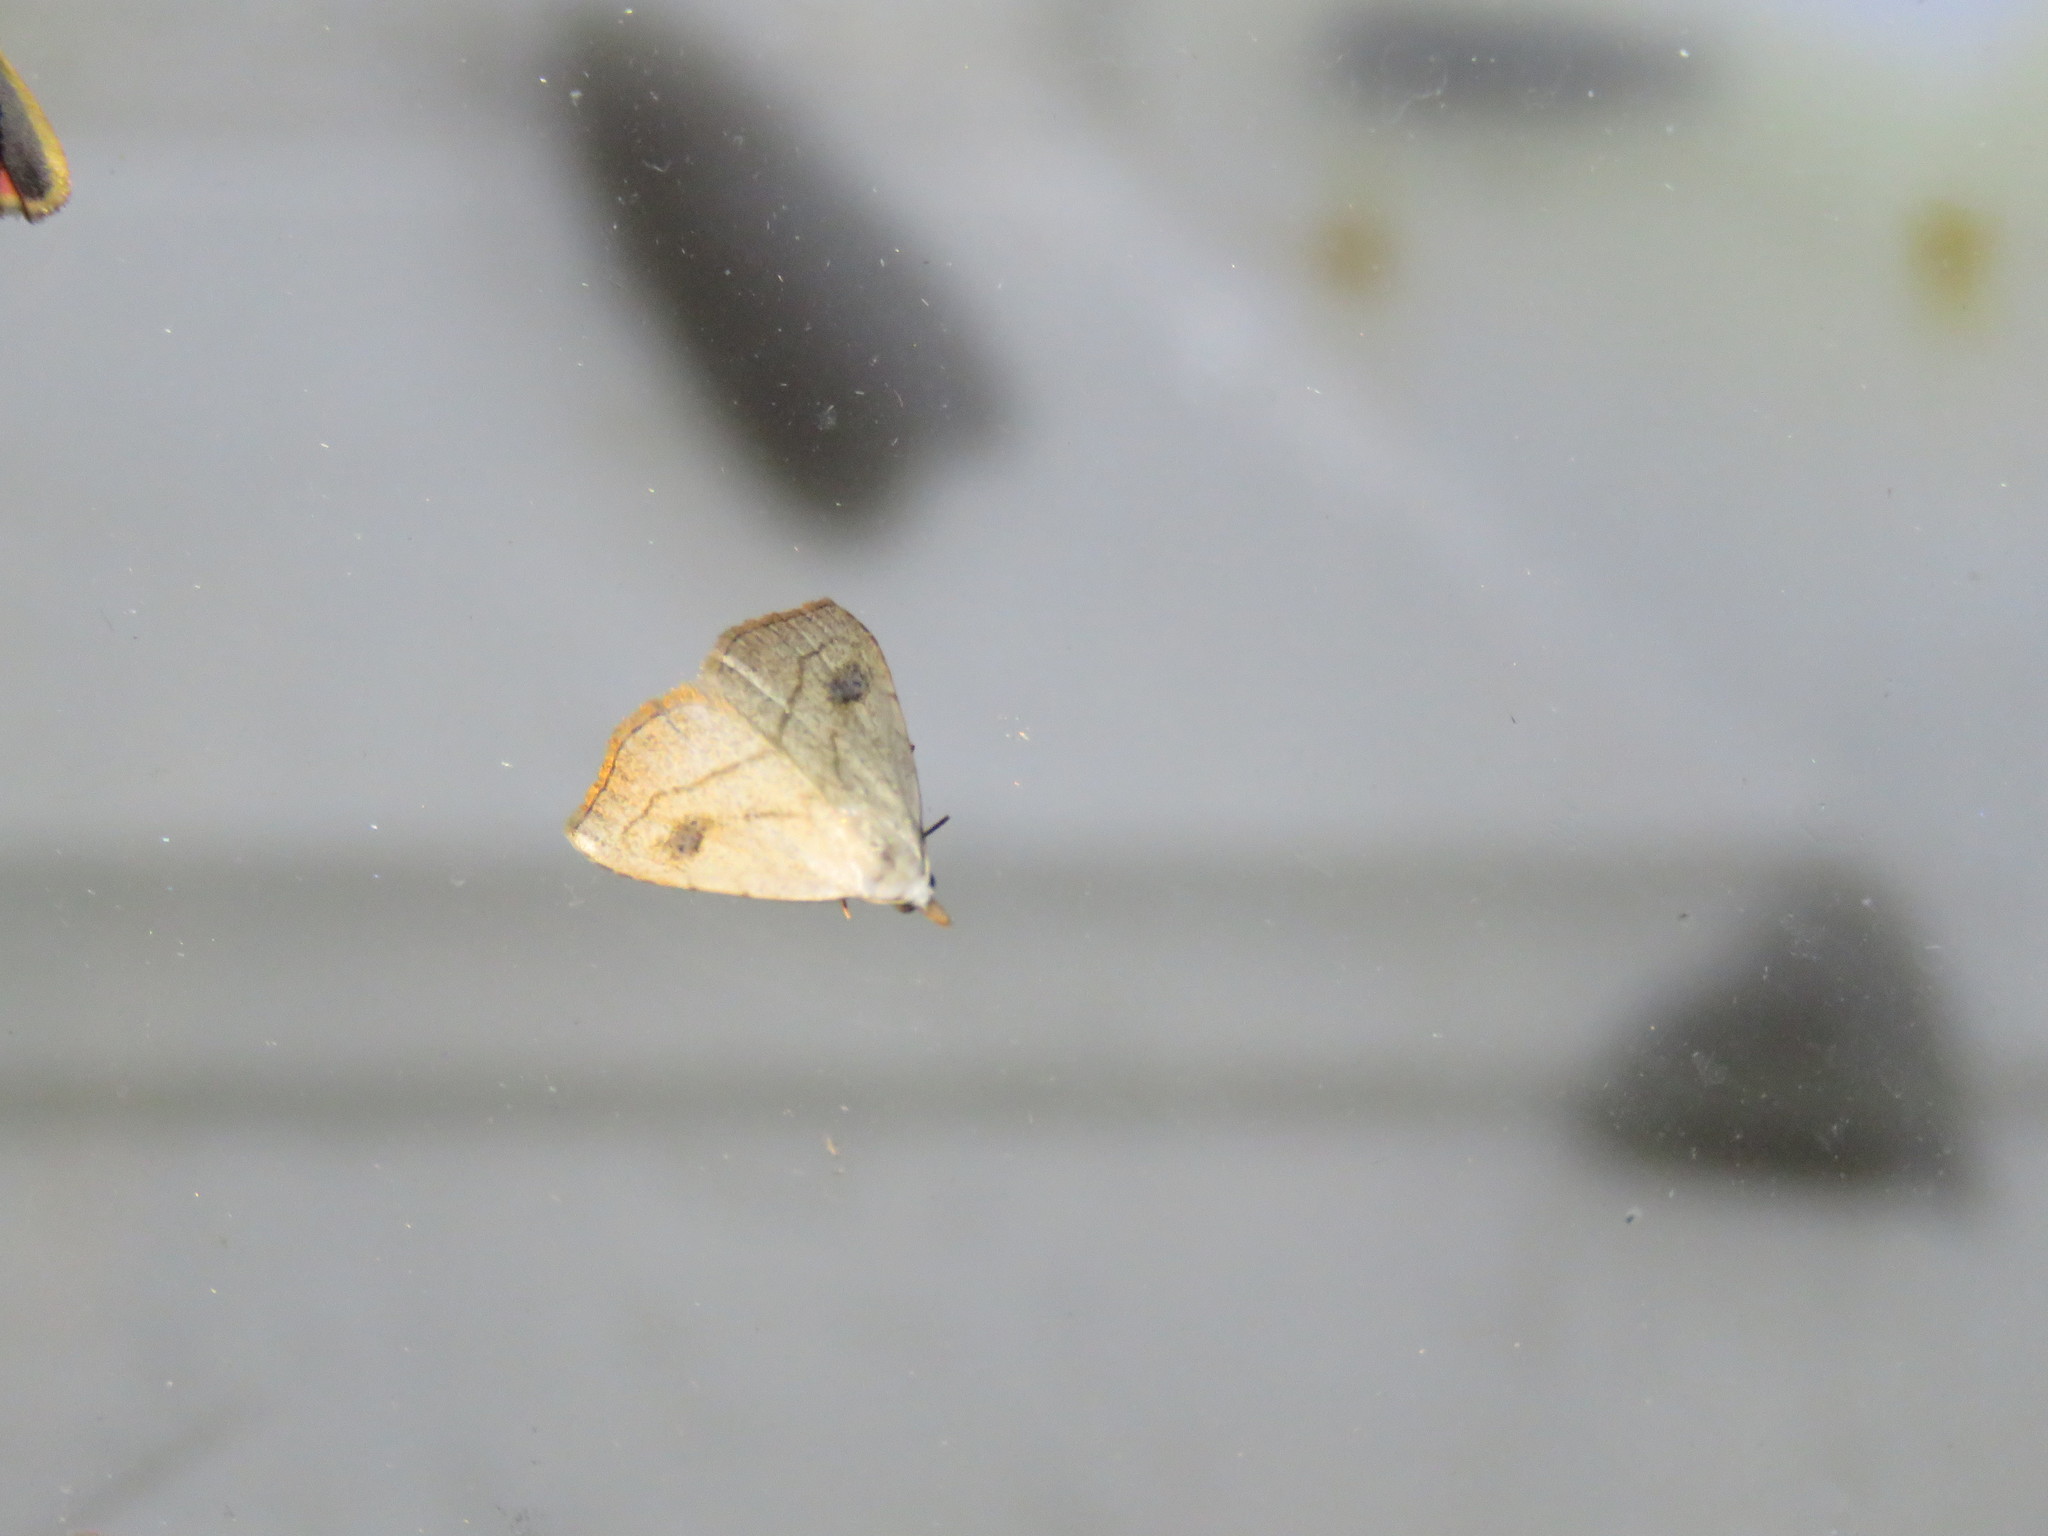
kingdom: Animalia
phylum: Arthropoda
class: Insecta
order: Lepidoptera
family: Erebidae
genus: Rivula
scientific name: Rivula propinqualis
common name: Spotted grass moth
